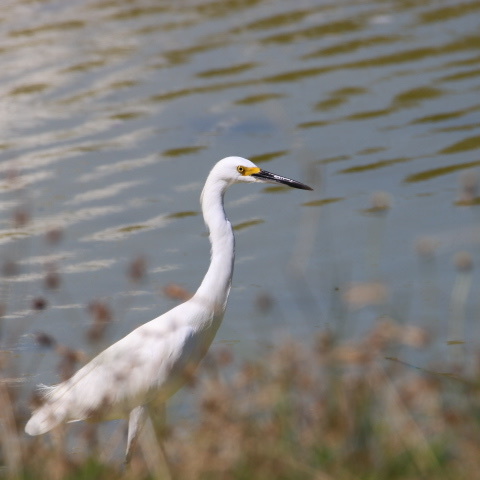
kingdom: Animalia
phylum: Chordata
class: Aves
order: Pelecaniformes
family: Ardeidae
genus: Egretta
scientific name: Egretta thula
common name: Snowy egret
